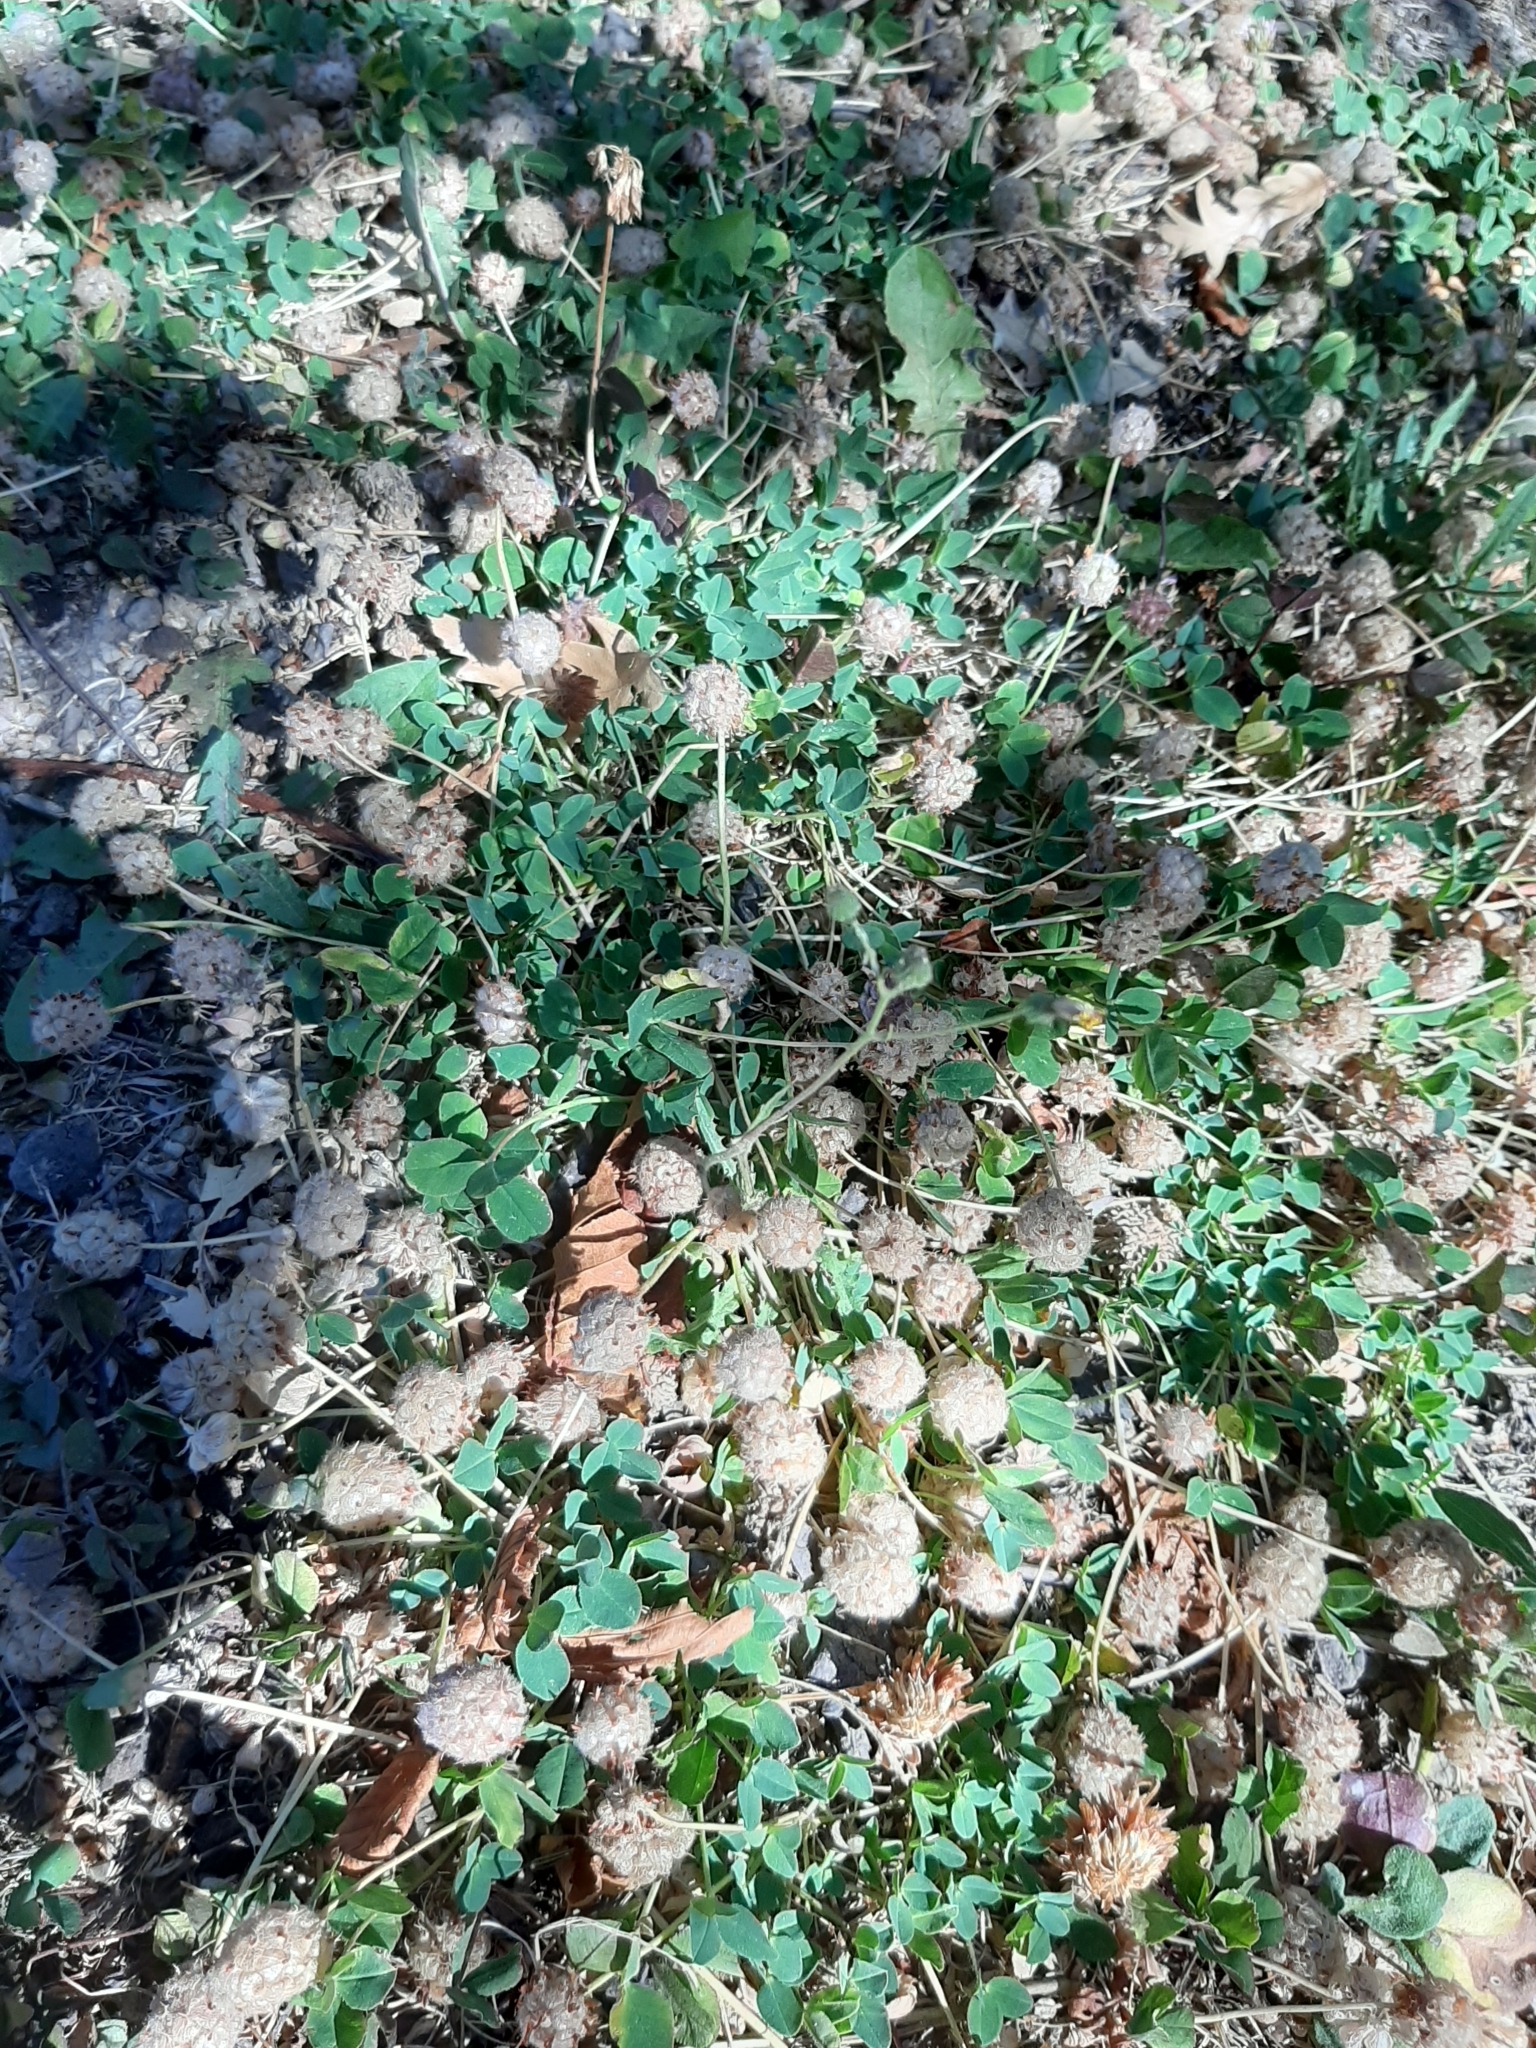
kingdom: Plantae
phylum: Tracheophyta
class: Magnoliopsida
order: Fabales
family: Fabaceae
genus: Trifolium
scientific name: Trifolium fragiferum
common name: Strawberry clover
